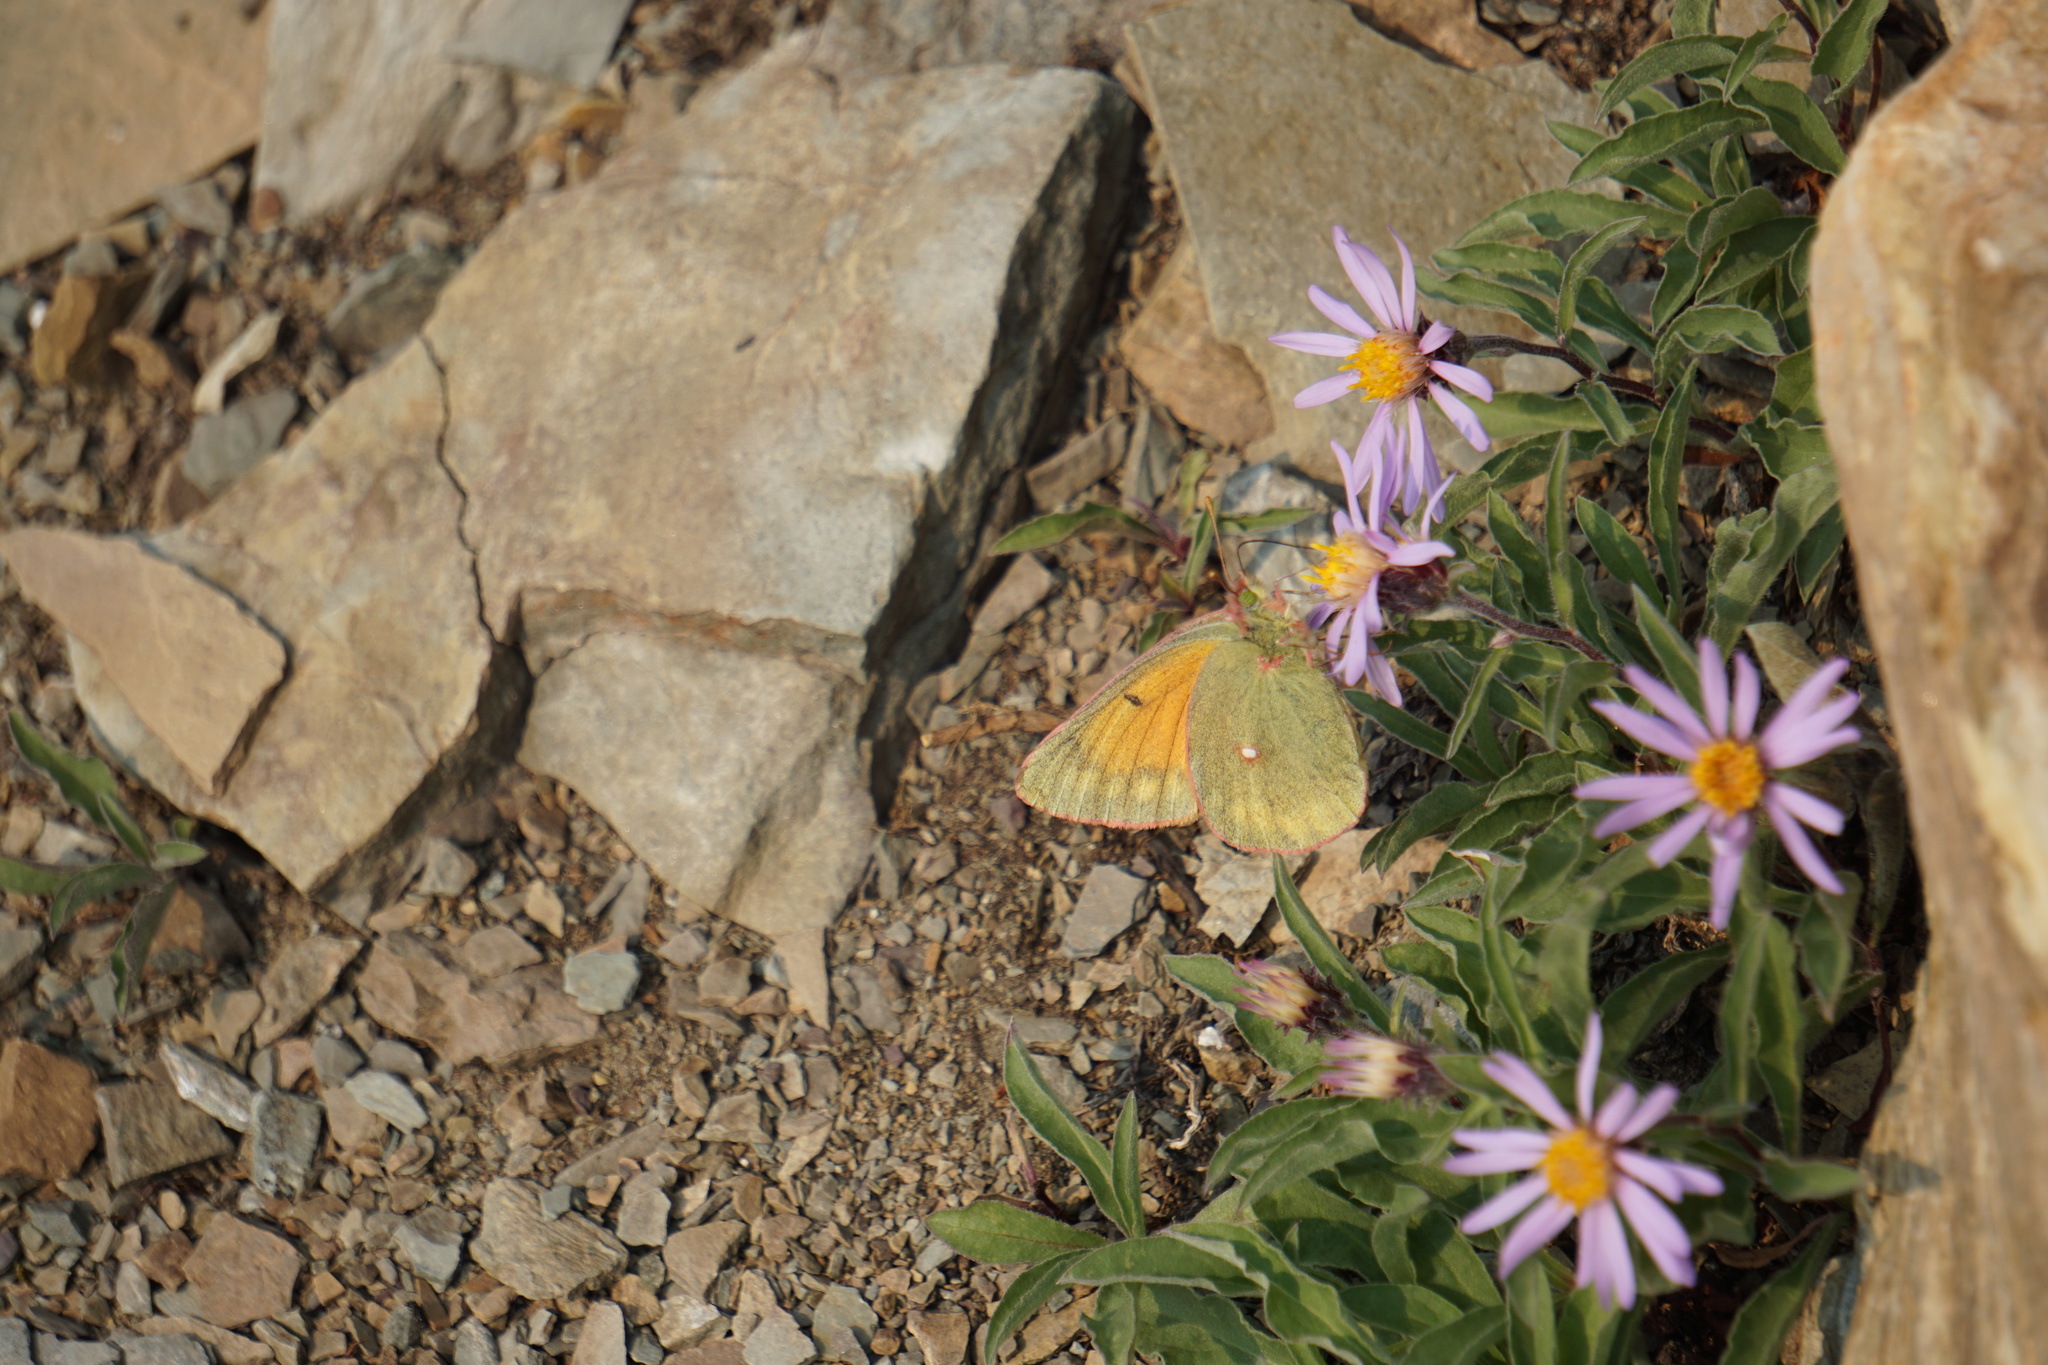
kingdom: Animalia
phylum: Arthropoda
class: Insecta
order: Lepidoptera
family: Pieridae
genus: Colias
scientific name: Colias meadii
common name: Mead's sulphur
